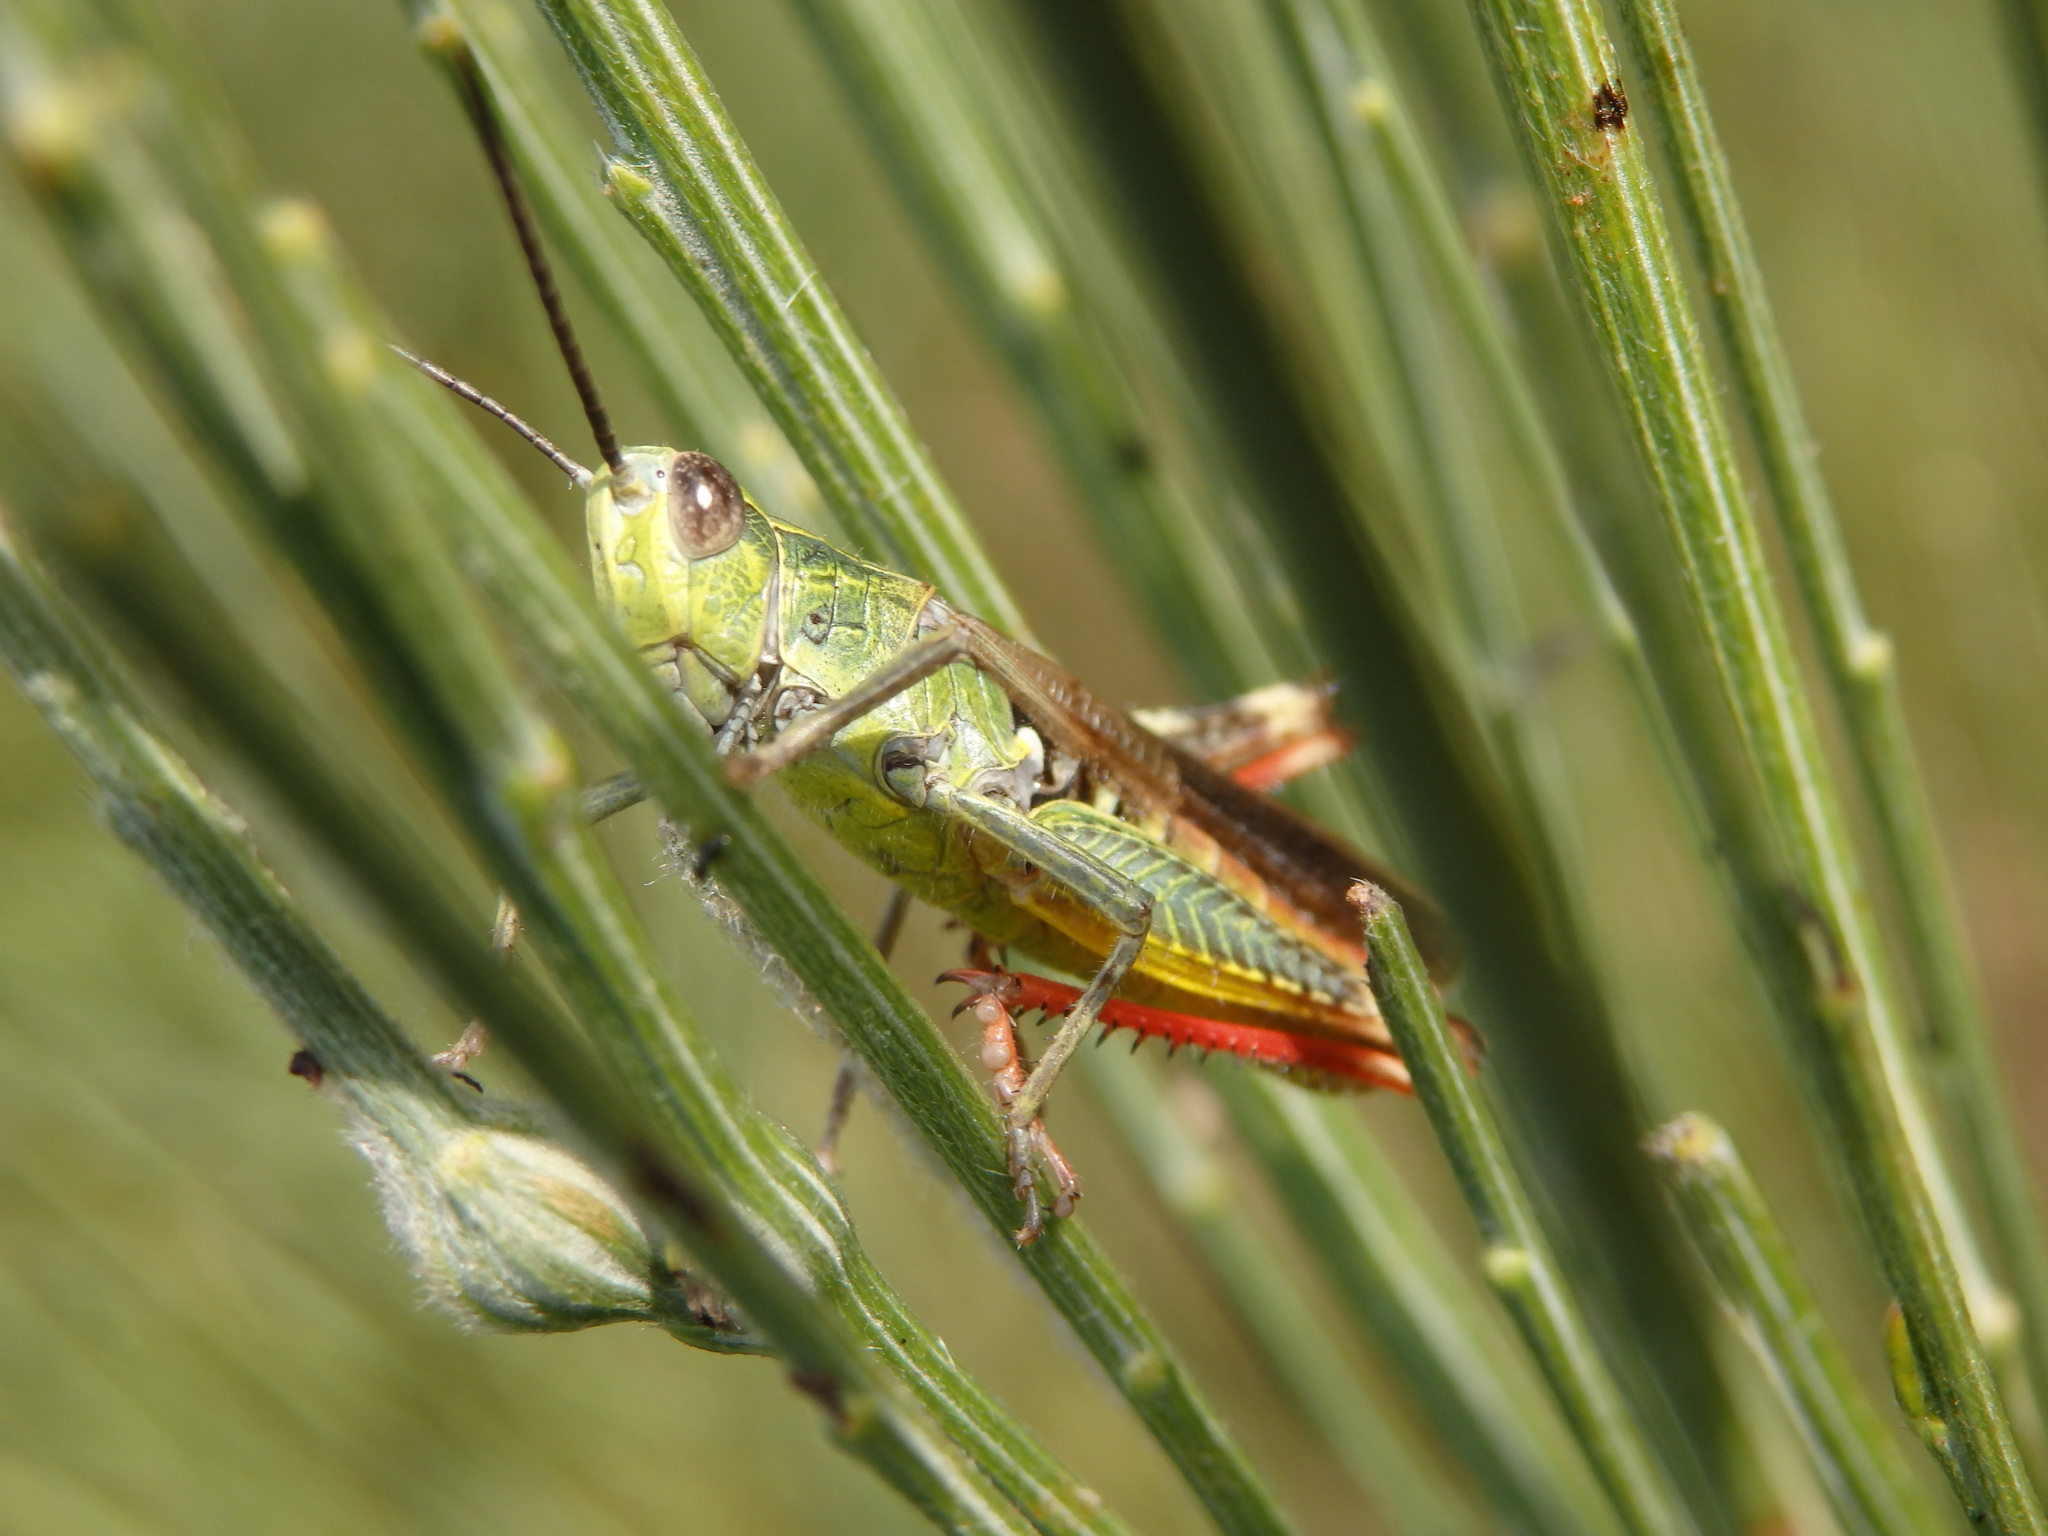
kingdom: Animalia
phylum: Arthropoda
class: Insecta
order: Orthoptera
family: Acrididae
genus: Chorthippus
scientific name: Chorthippus binotatus
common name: Two-marked grasshopper
